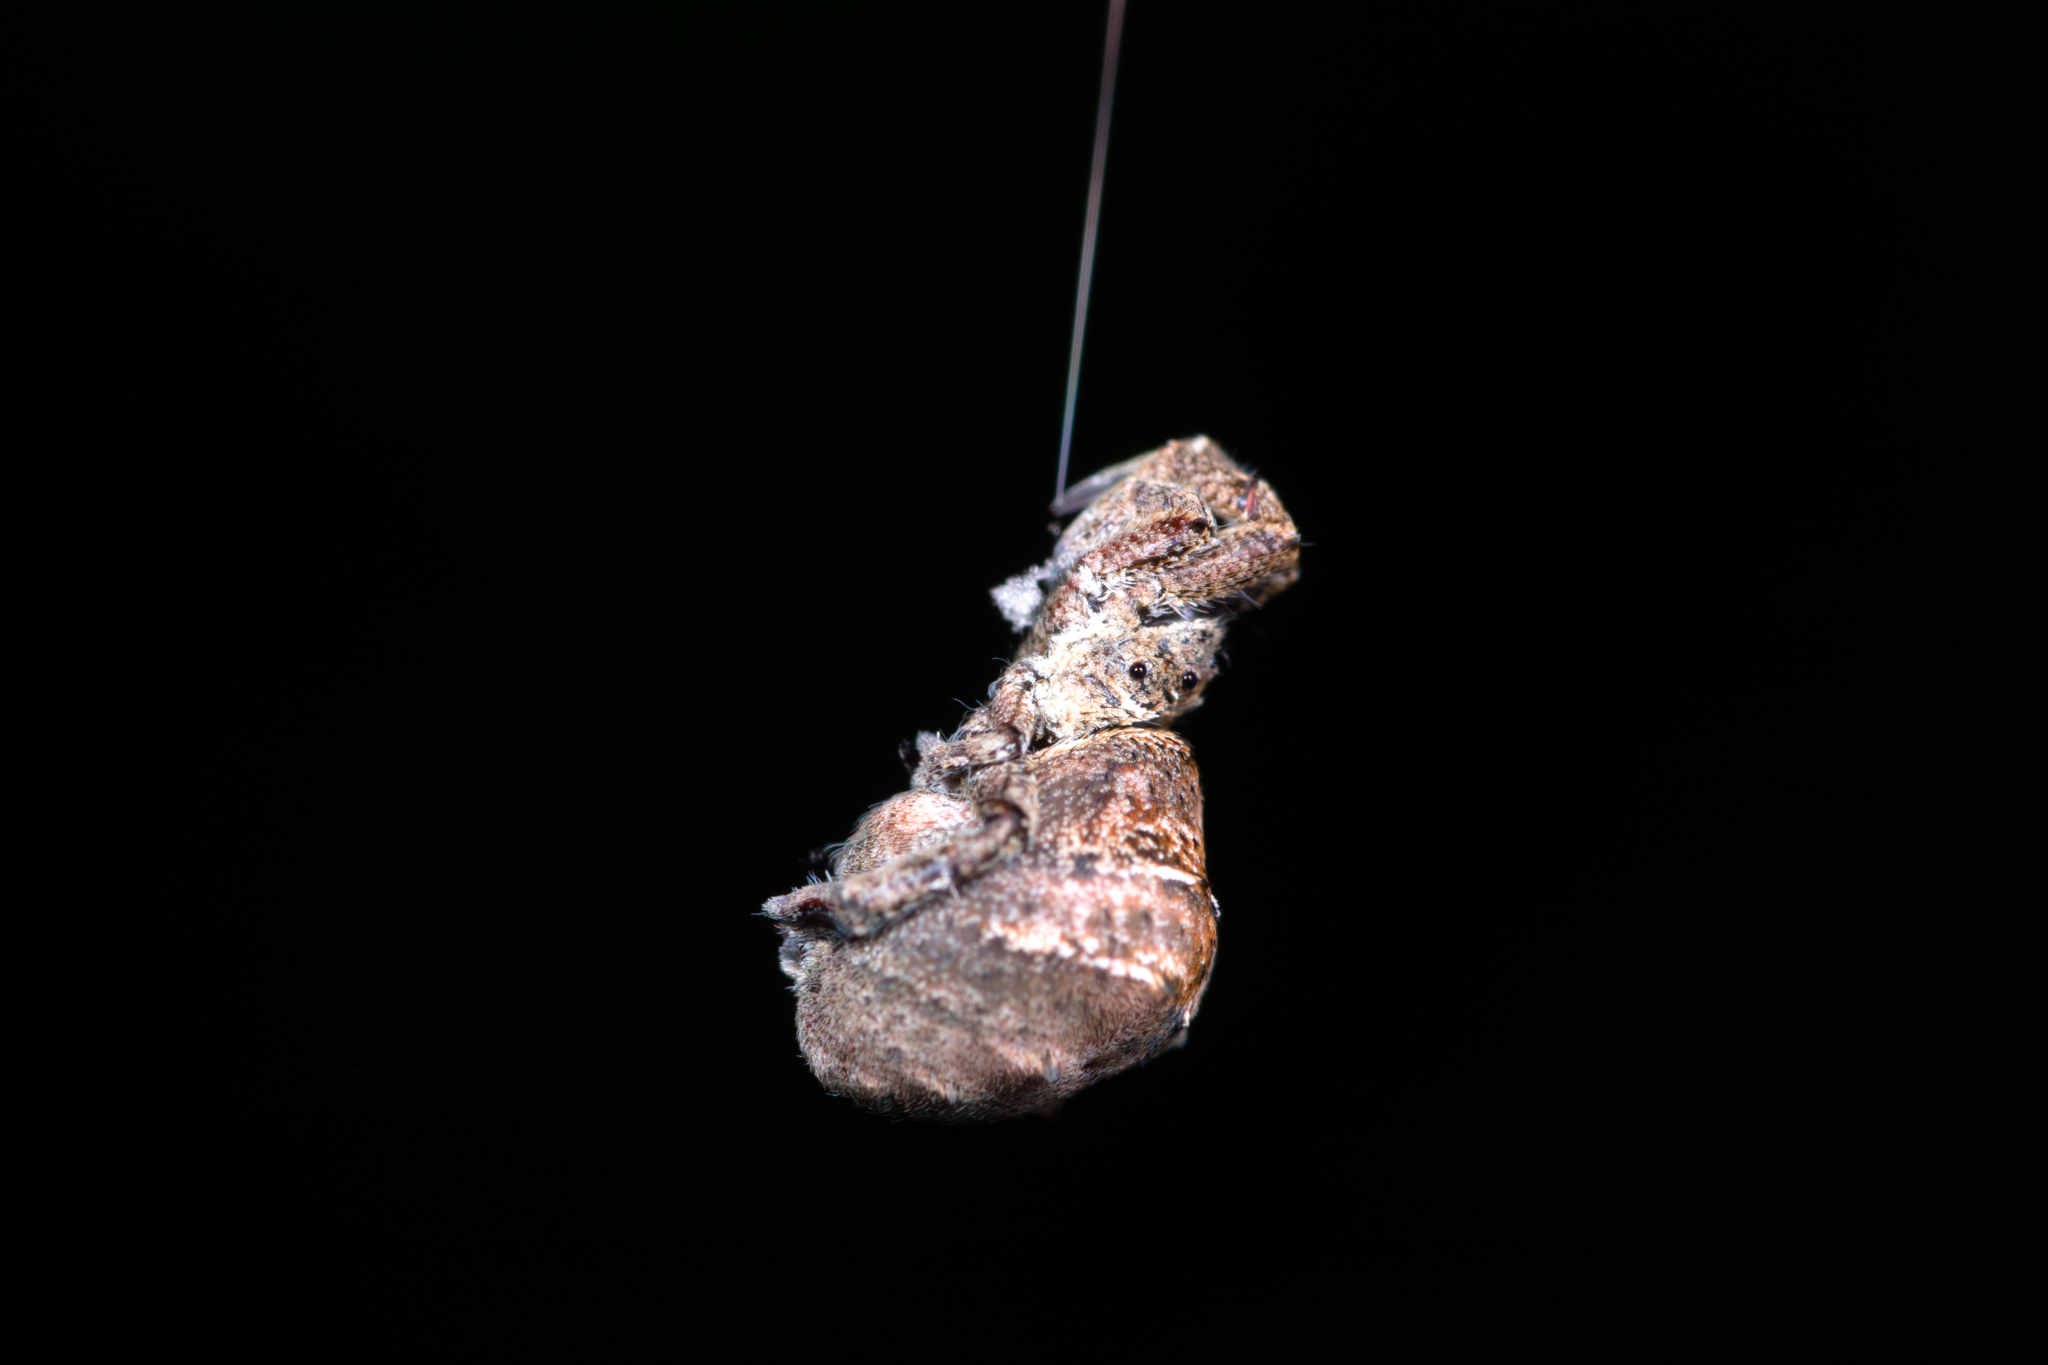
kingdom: Animalia
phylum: Arthropoda
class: Arachnida
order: Araneae
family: Uloboridae
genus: Hyptiotes
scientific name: Hyptiotes cavatus
